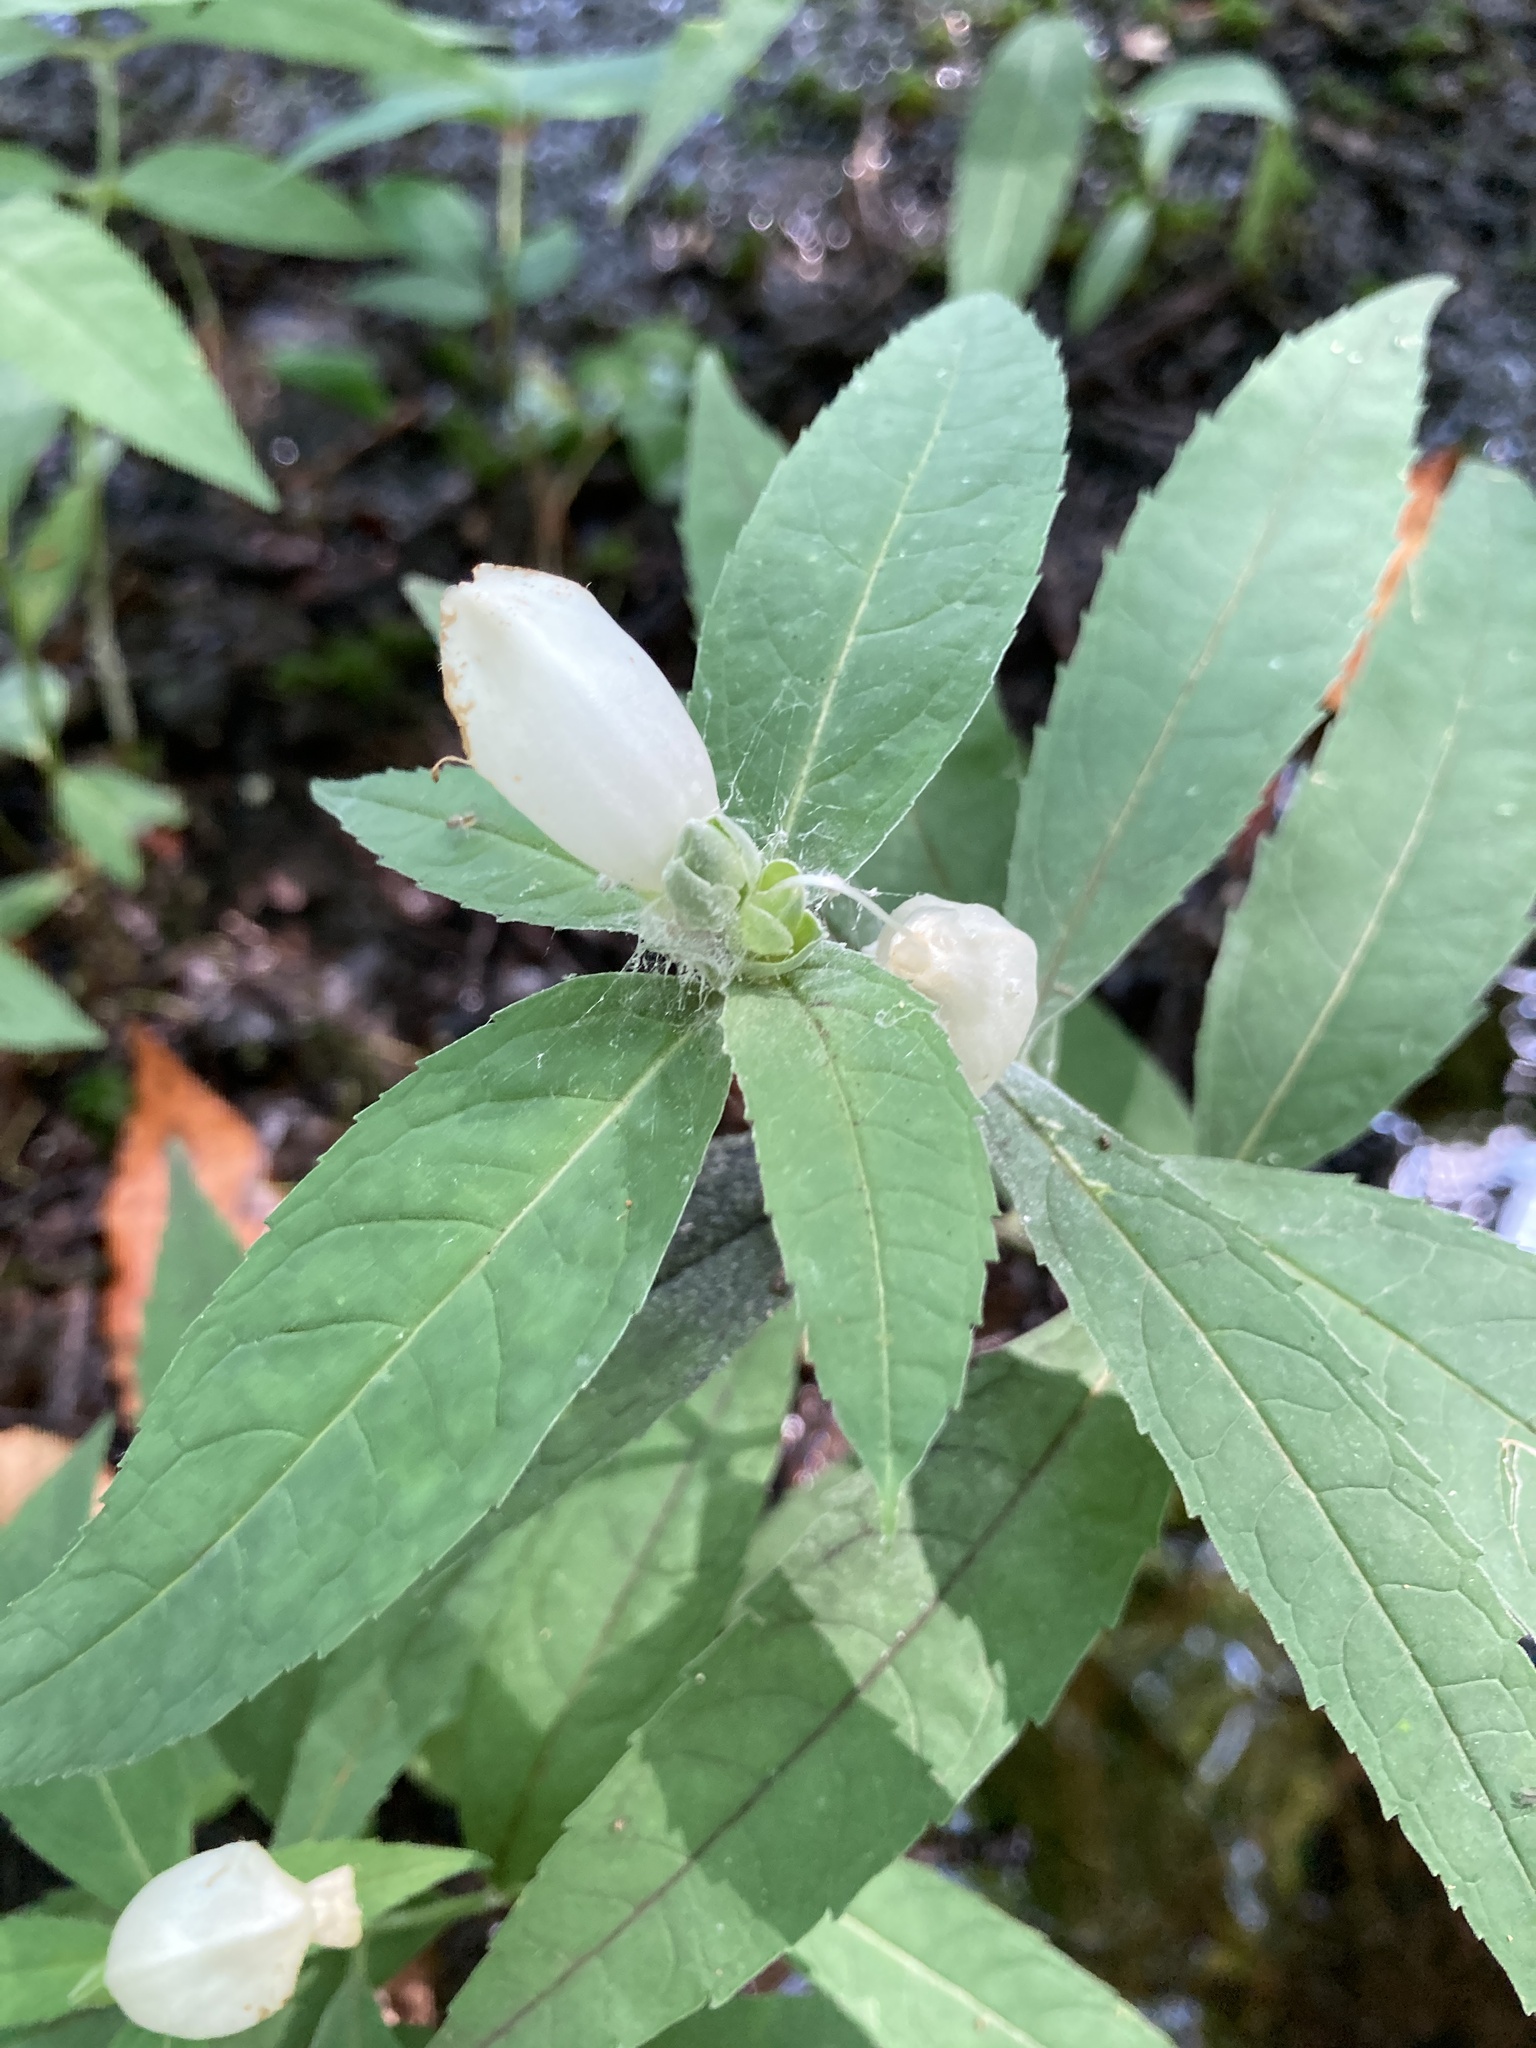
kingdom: Plantae
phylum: Tracheophyta
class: Magnoliopsida
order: Lamiales
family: Plantaginaceae
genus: Chelone
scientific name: Chelone glabra
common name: Snakehead
